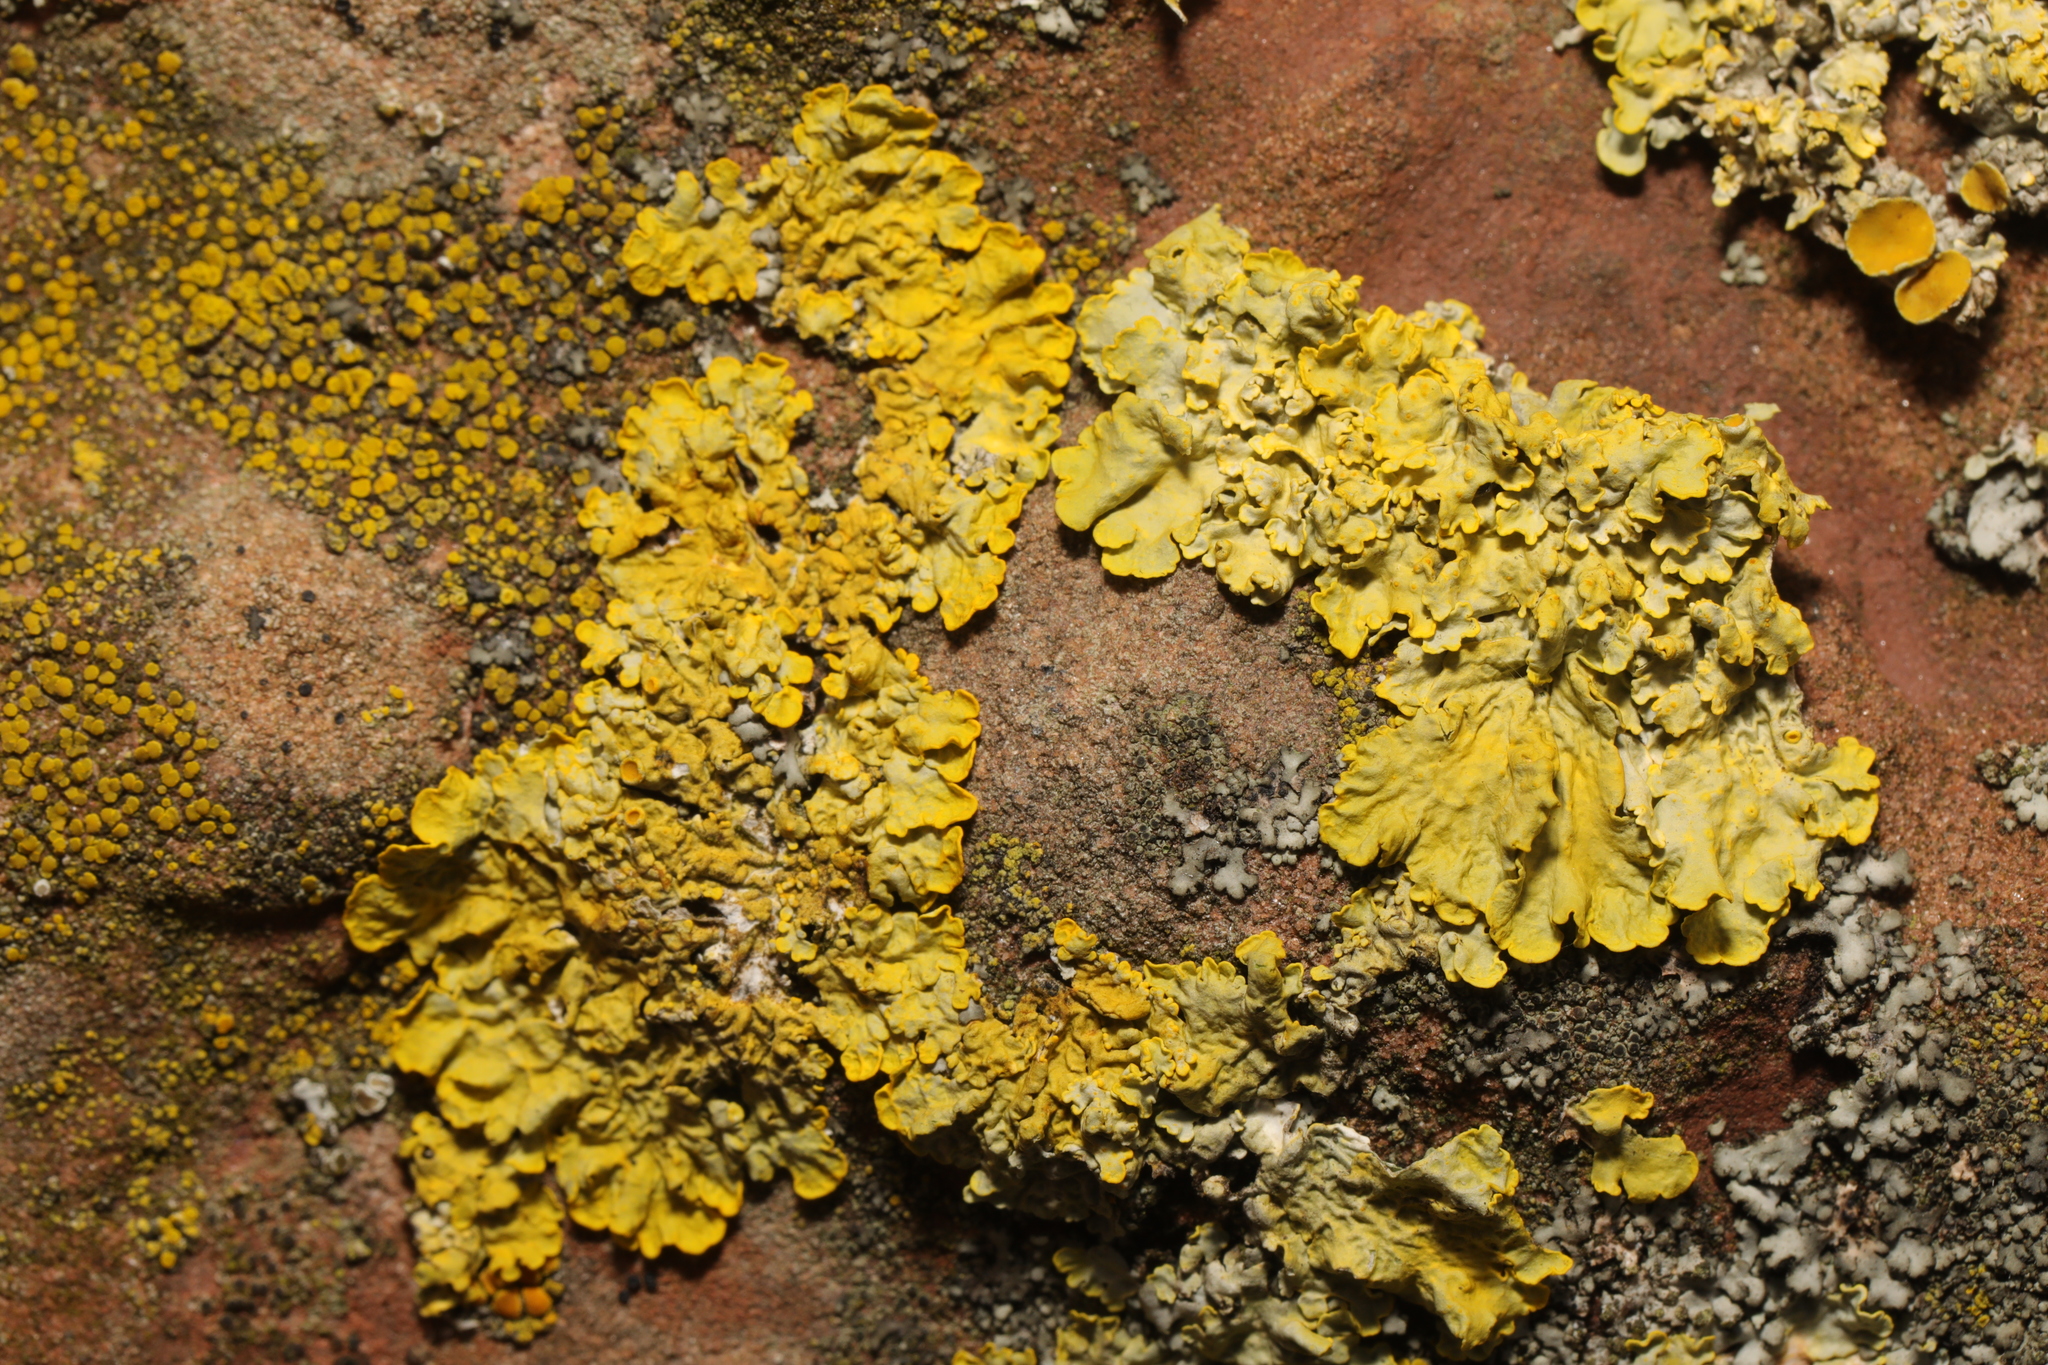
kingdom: Fungi
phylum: Ascomycota
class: Lecanoromycetes
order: Teloschistales
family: Teloschistaceae
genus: Xanthoria
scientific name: Xanthoria parietina
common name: Common orange lichen
